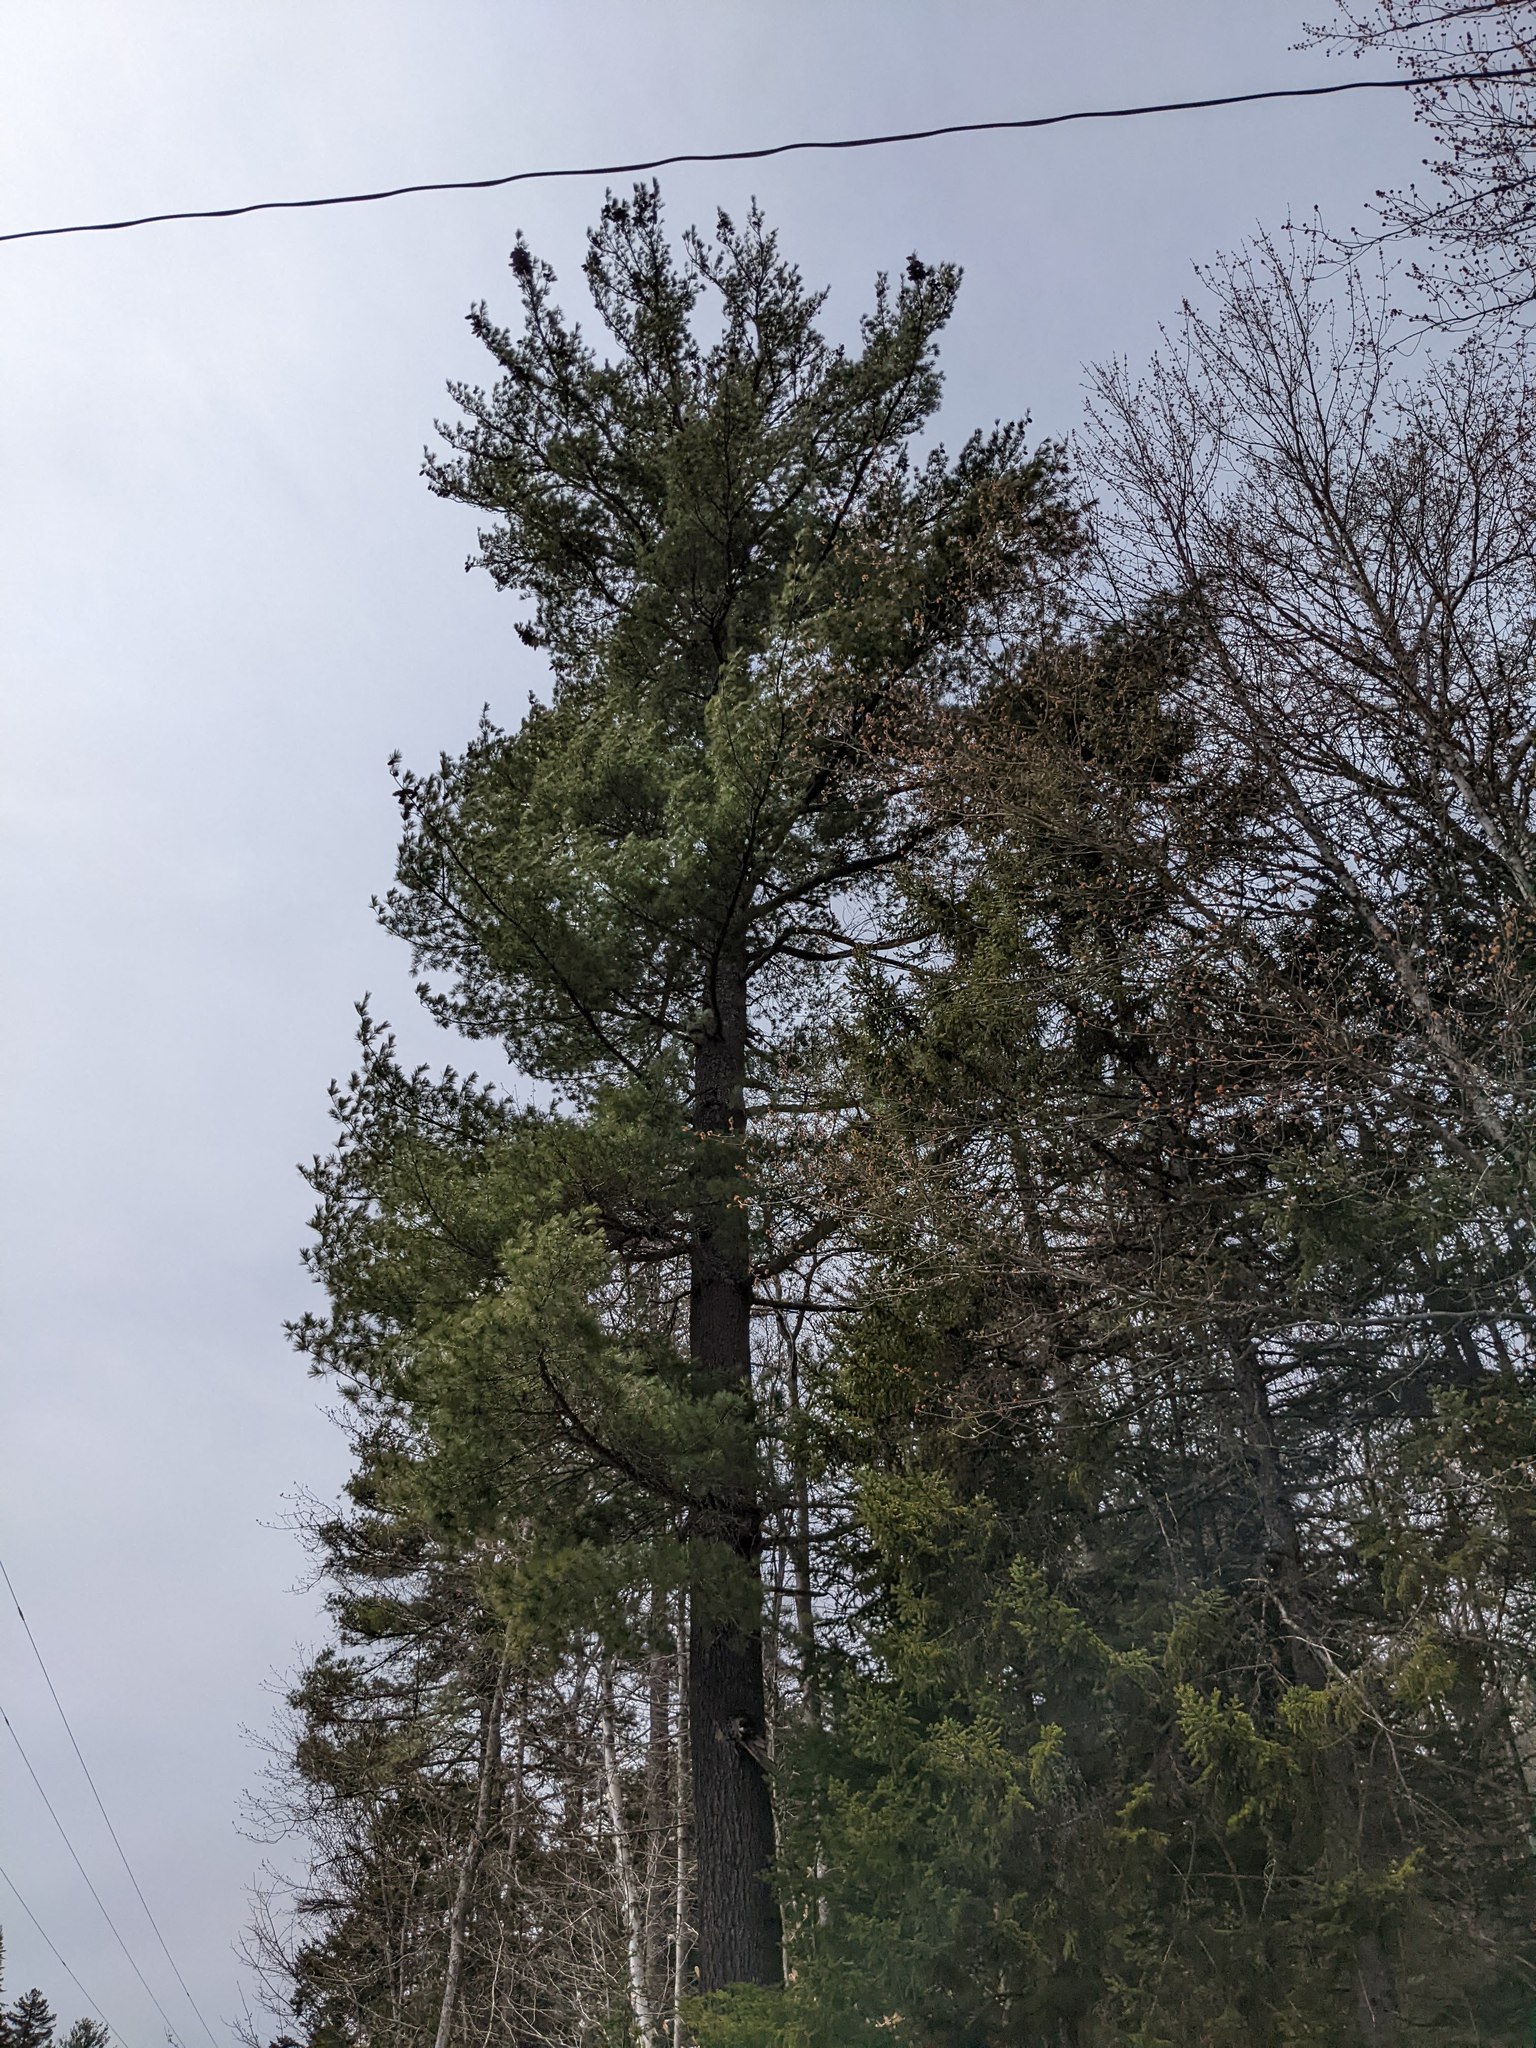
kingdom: Plantae
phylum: Tracheophyta
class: Pinopsida
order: Pinales
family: Pinaceae
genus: Pinus
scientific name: Pinus strobus
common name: Weymouth pine
